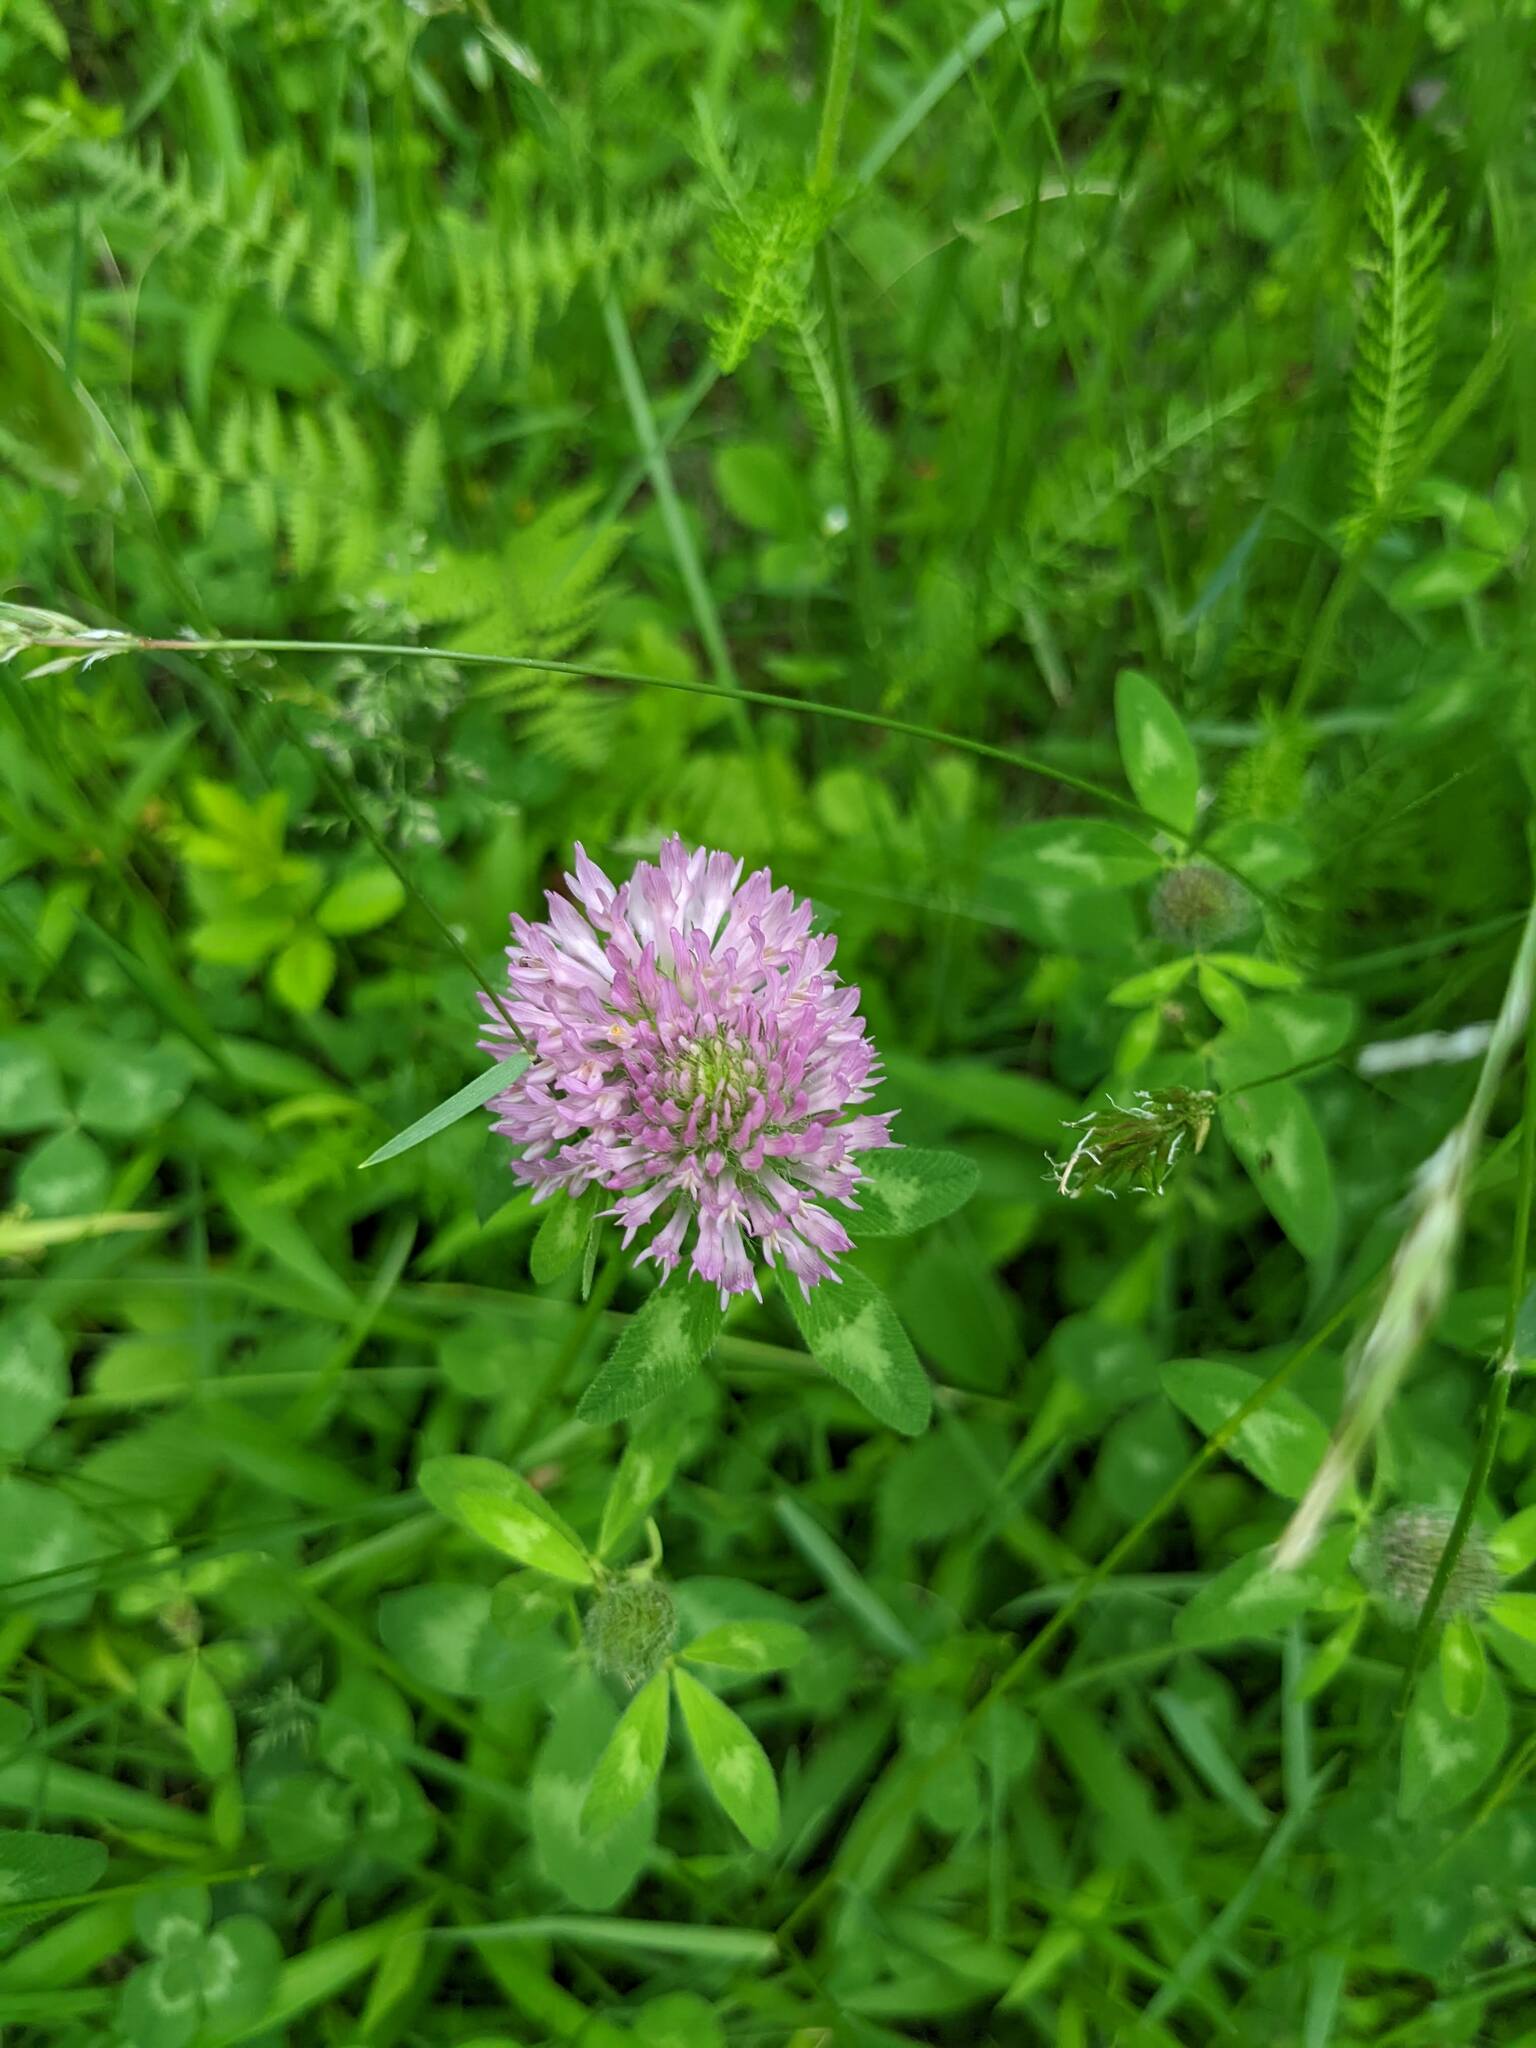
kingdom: Plantae
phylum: Tracheophyta
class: Magnoliopsida
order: Fabales
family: Fabaceae
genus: Trifolium
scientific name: Trifolium pratense
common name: Red clover
